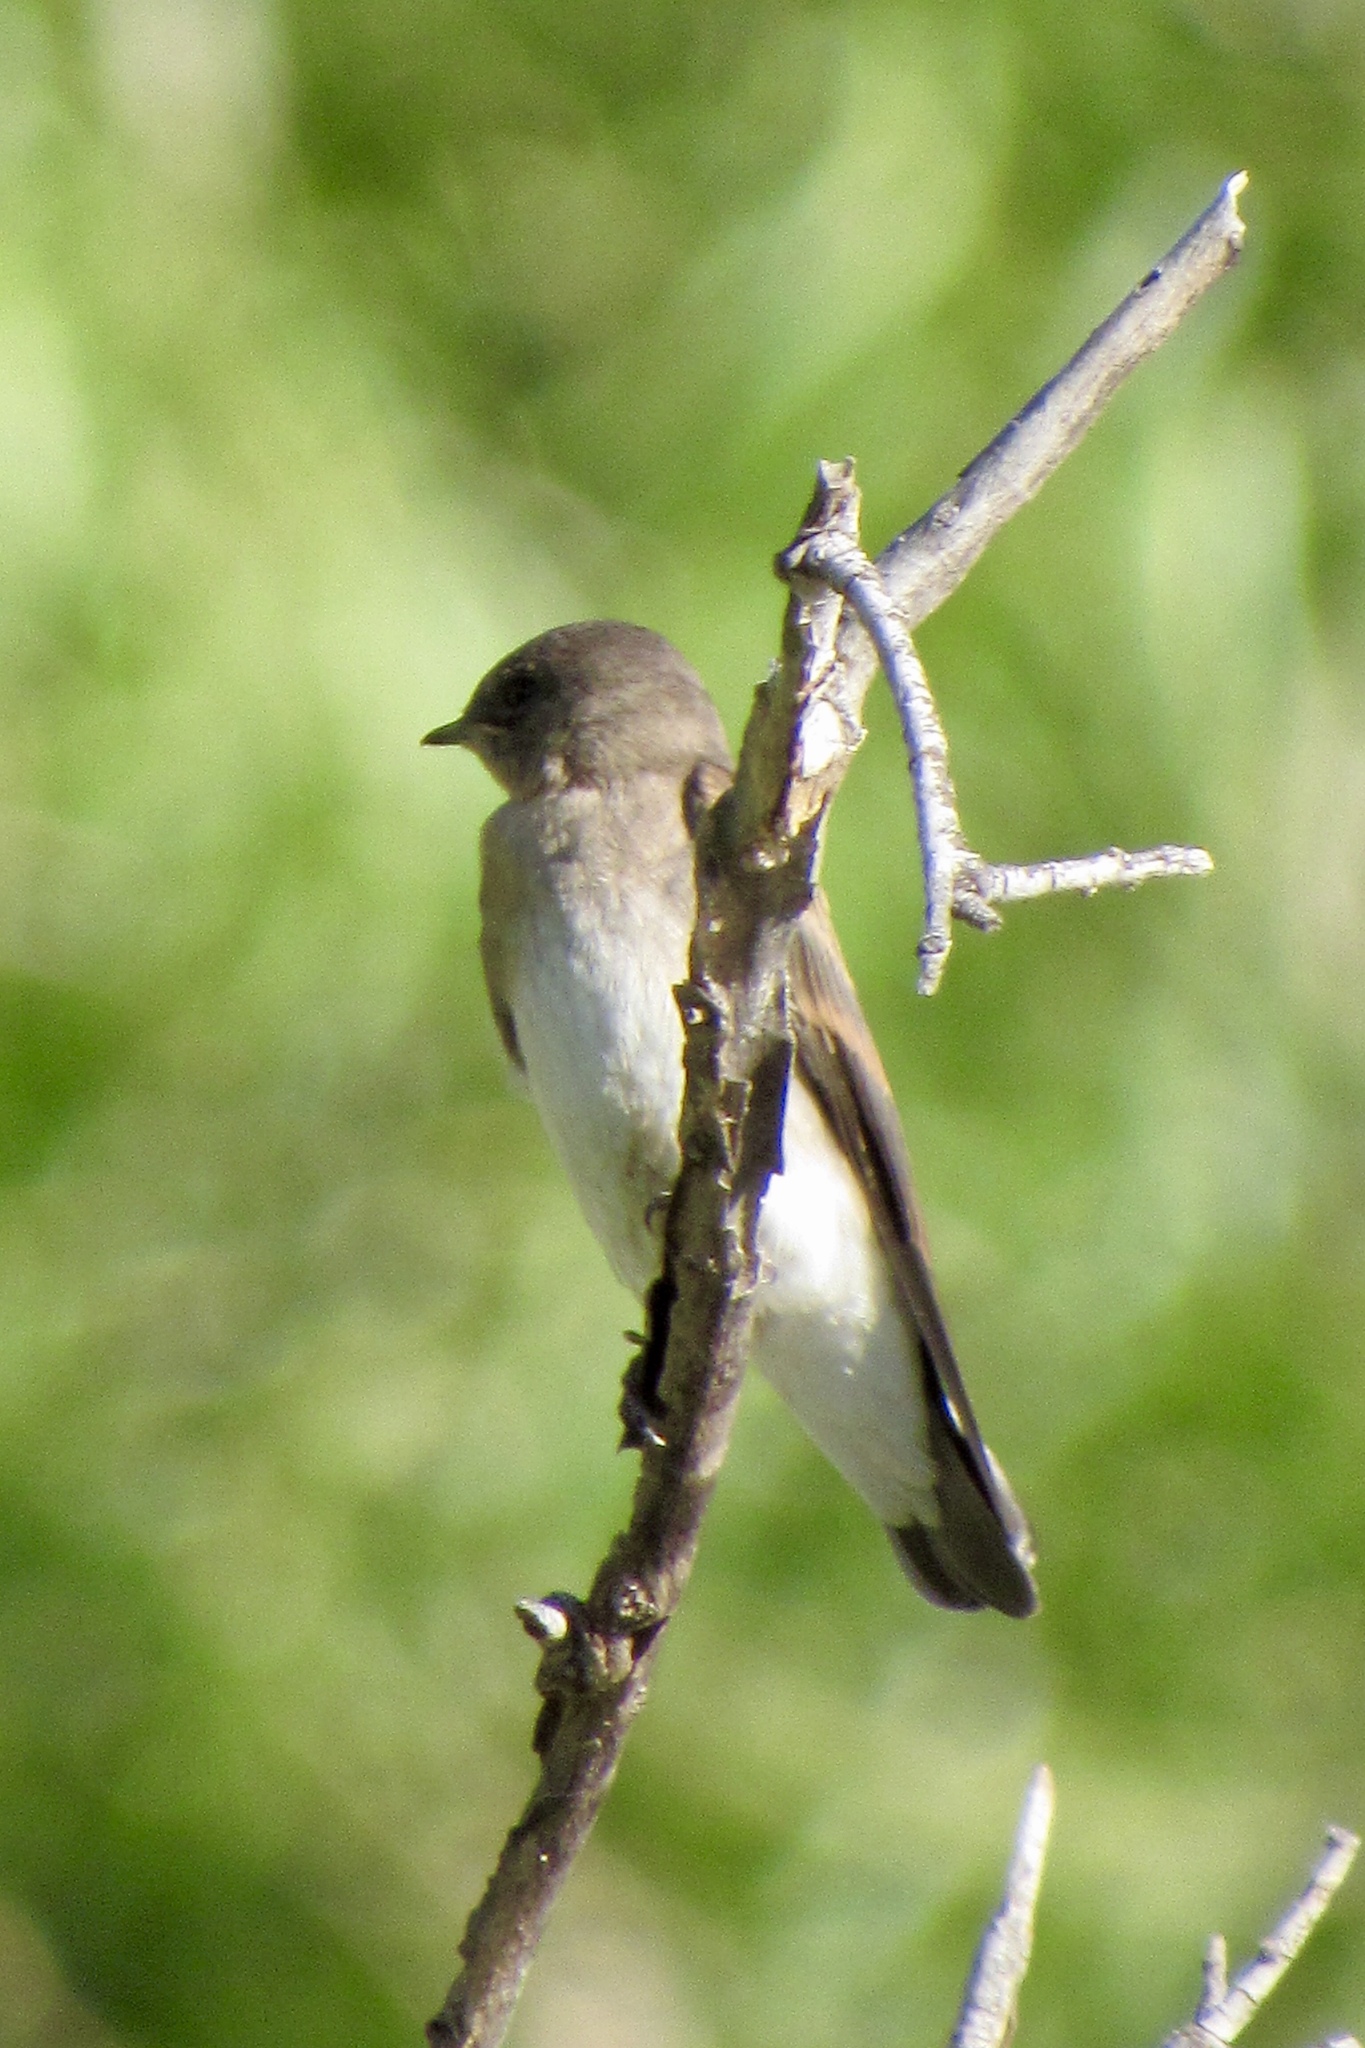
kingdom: Animalia
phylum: Chordata
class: Aves
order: Passeriformes
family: Hirundinidae
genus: Stelgidopteryx
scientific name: Stelgidopteryx serripennis
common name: Northern rough-winged swallow
